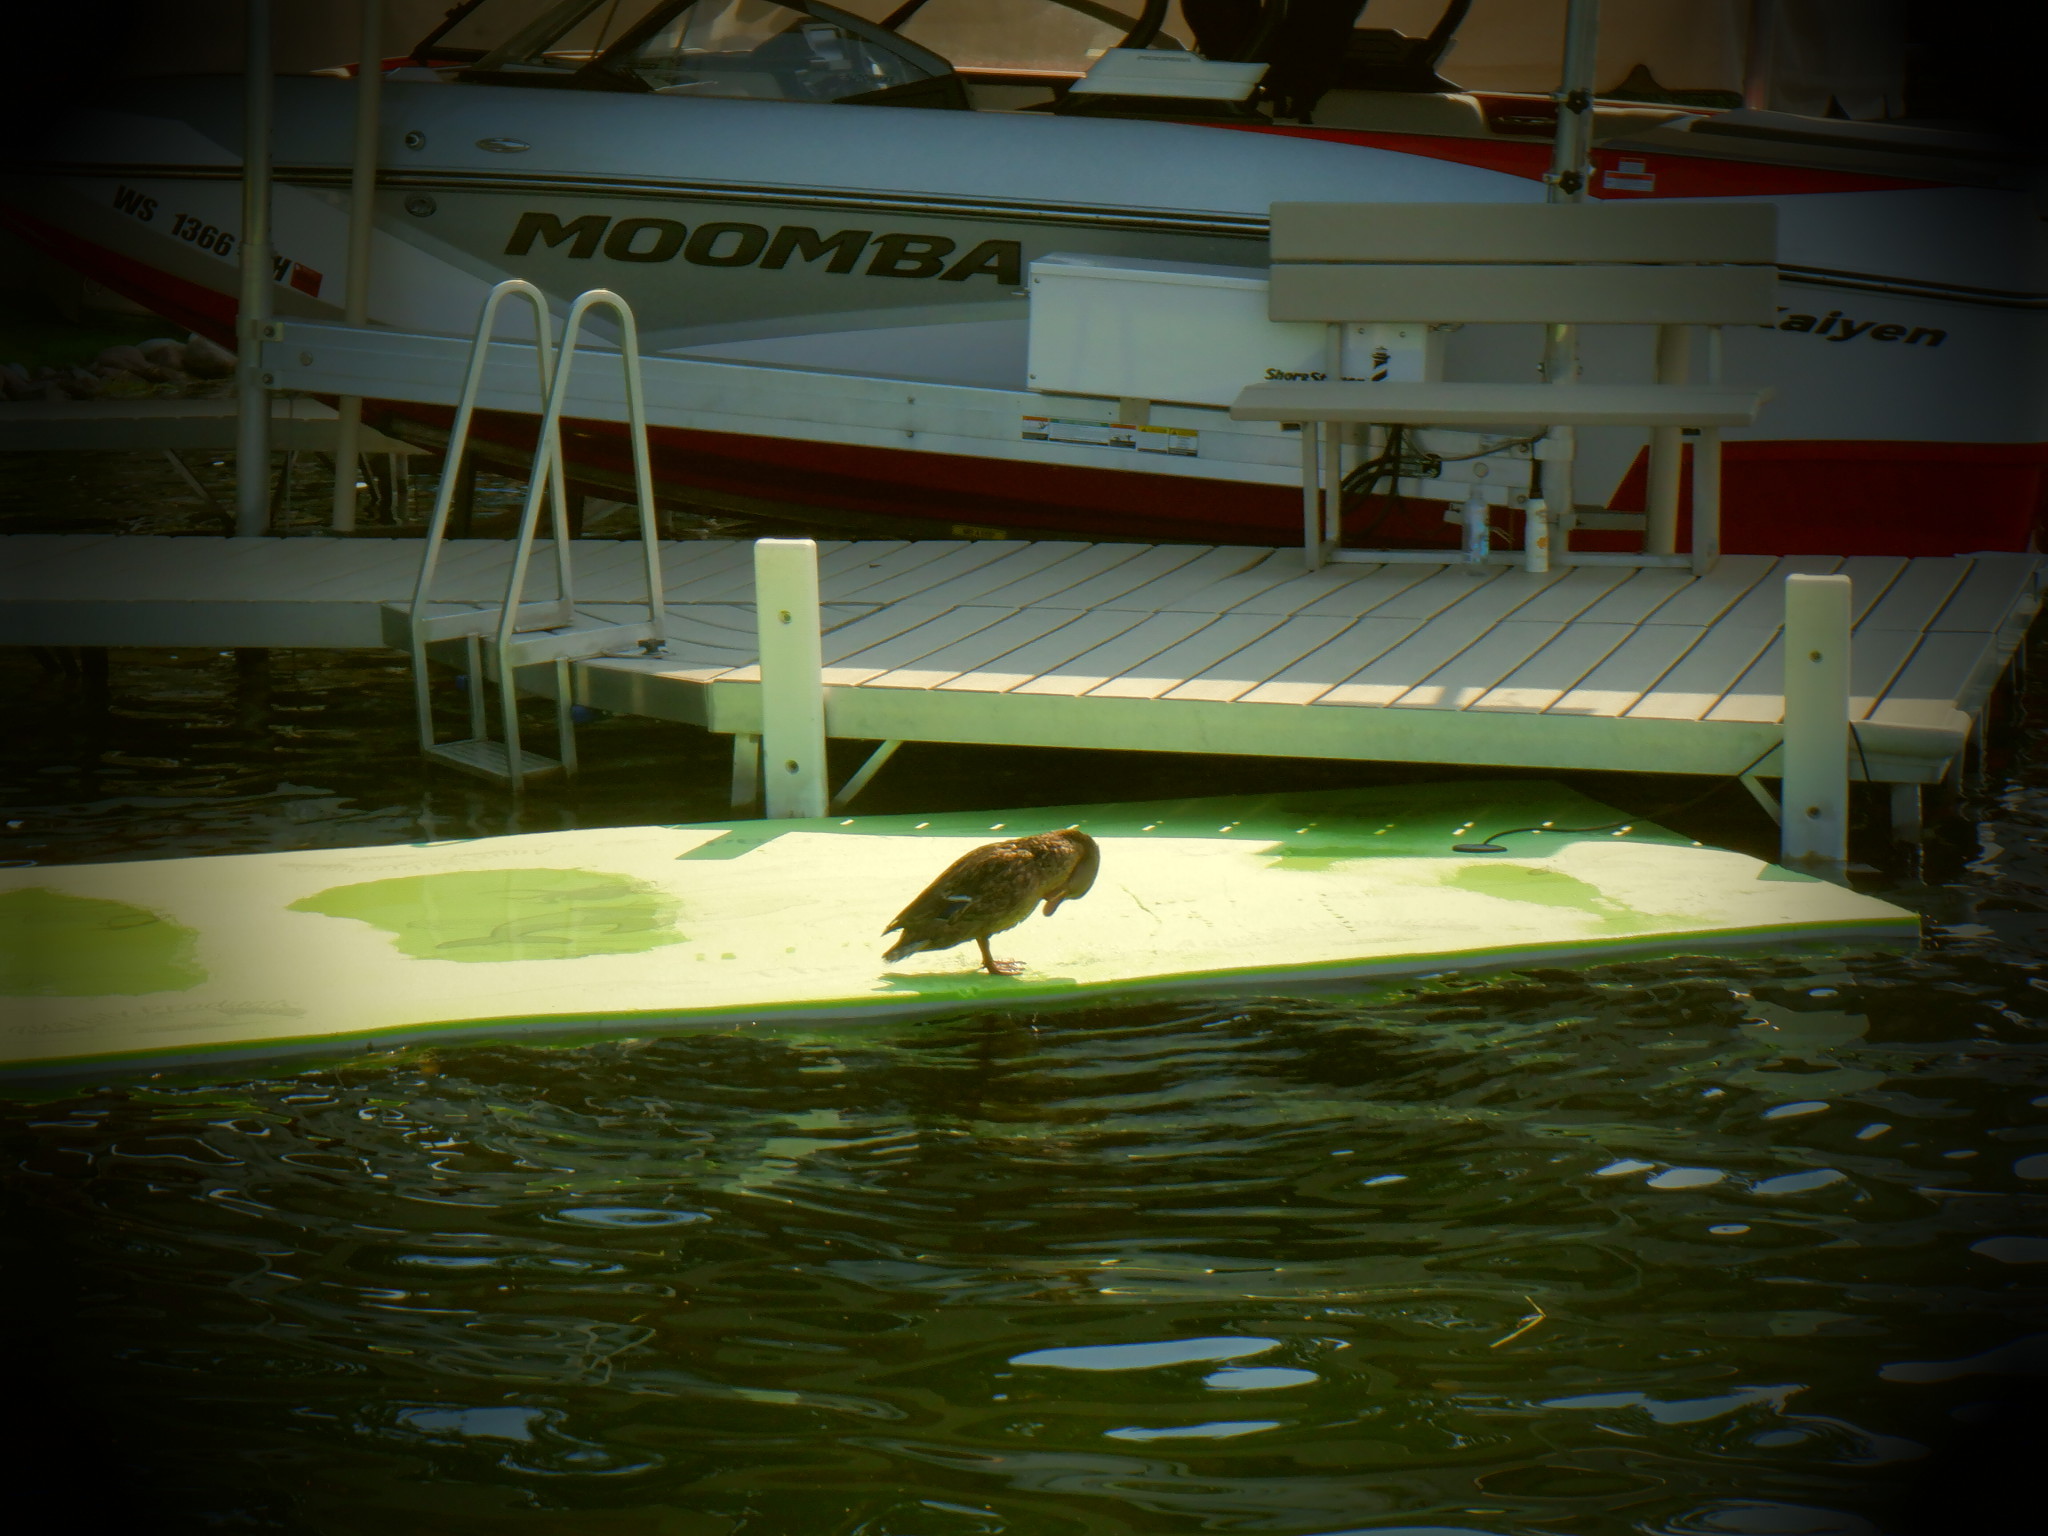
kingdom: Animalia
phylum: Chordata
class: Aves
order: Anseriformes
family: Anatidae
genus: Anas
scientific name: Anas platyrhynchos
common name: Mallard
